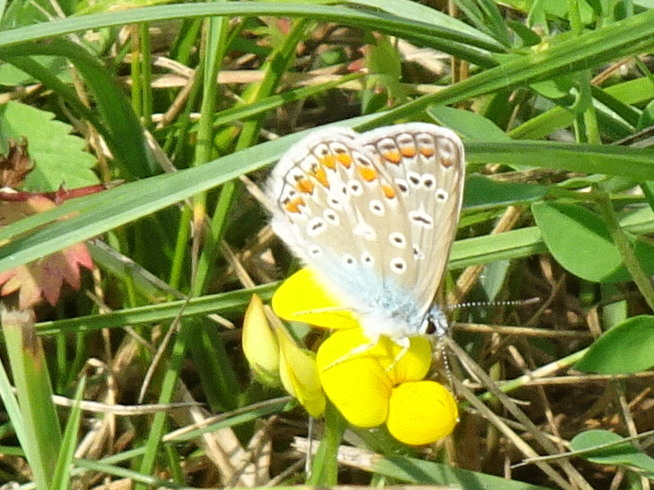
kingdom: Animalia
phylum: Arthropoda
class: Insecta
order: Lepidoptera
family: Lycaenidae
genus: Polyommatus
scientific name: Polyommatus icarus
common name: Common blue
